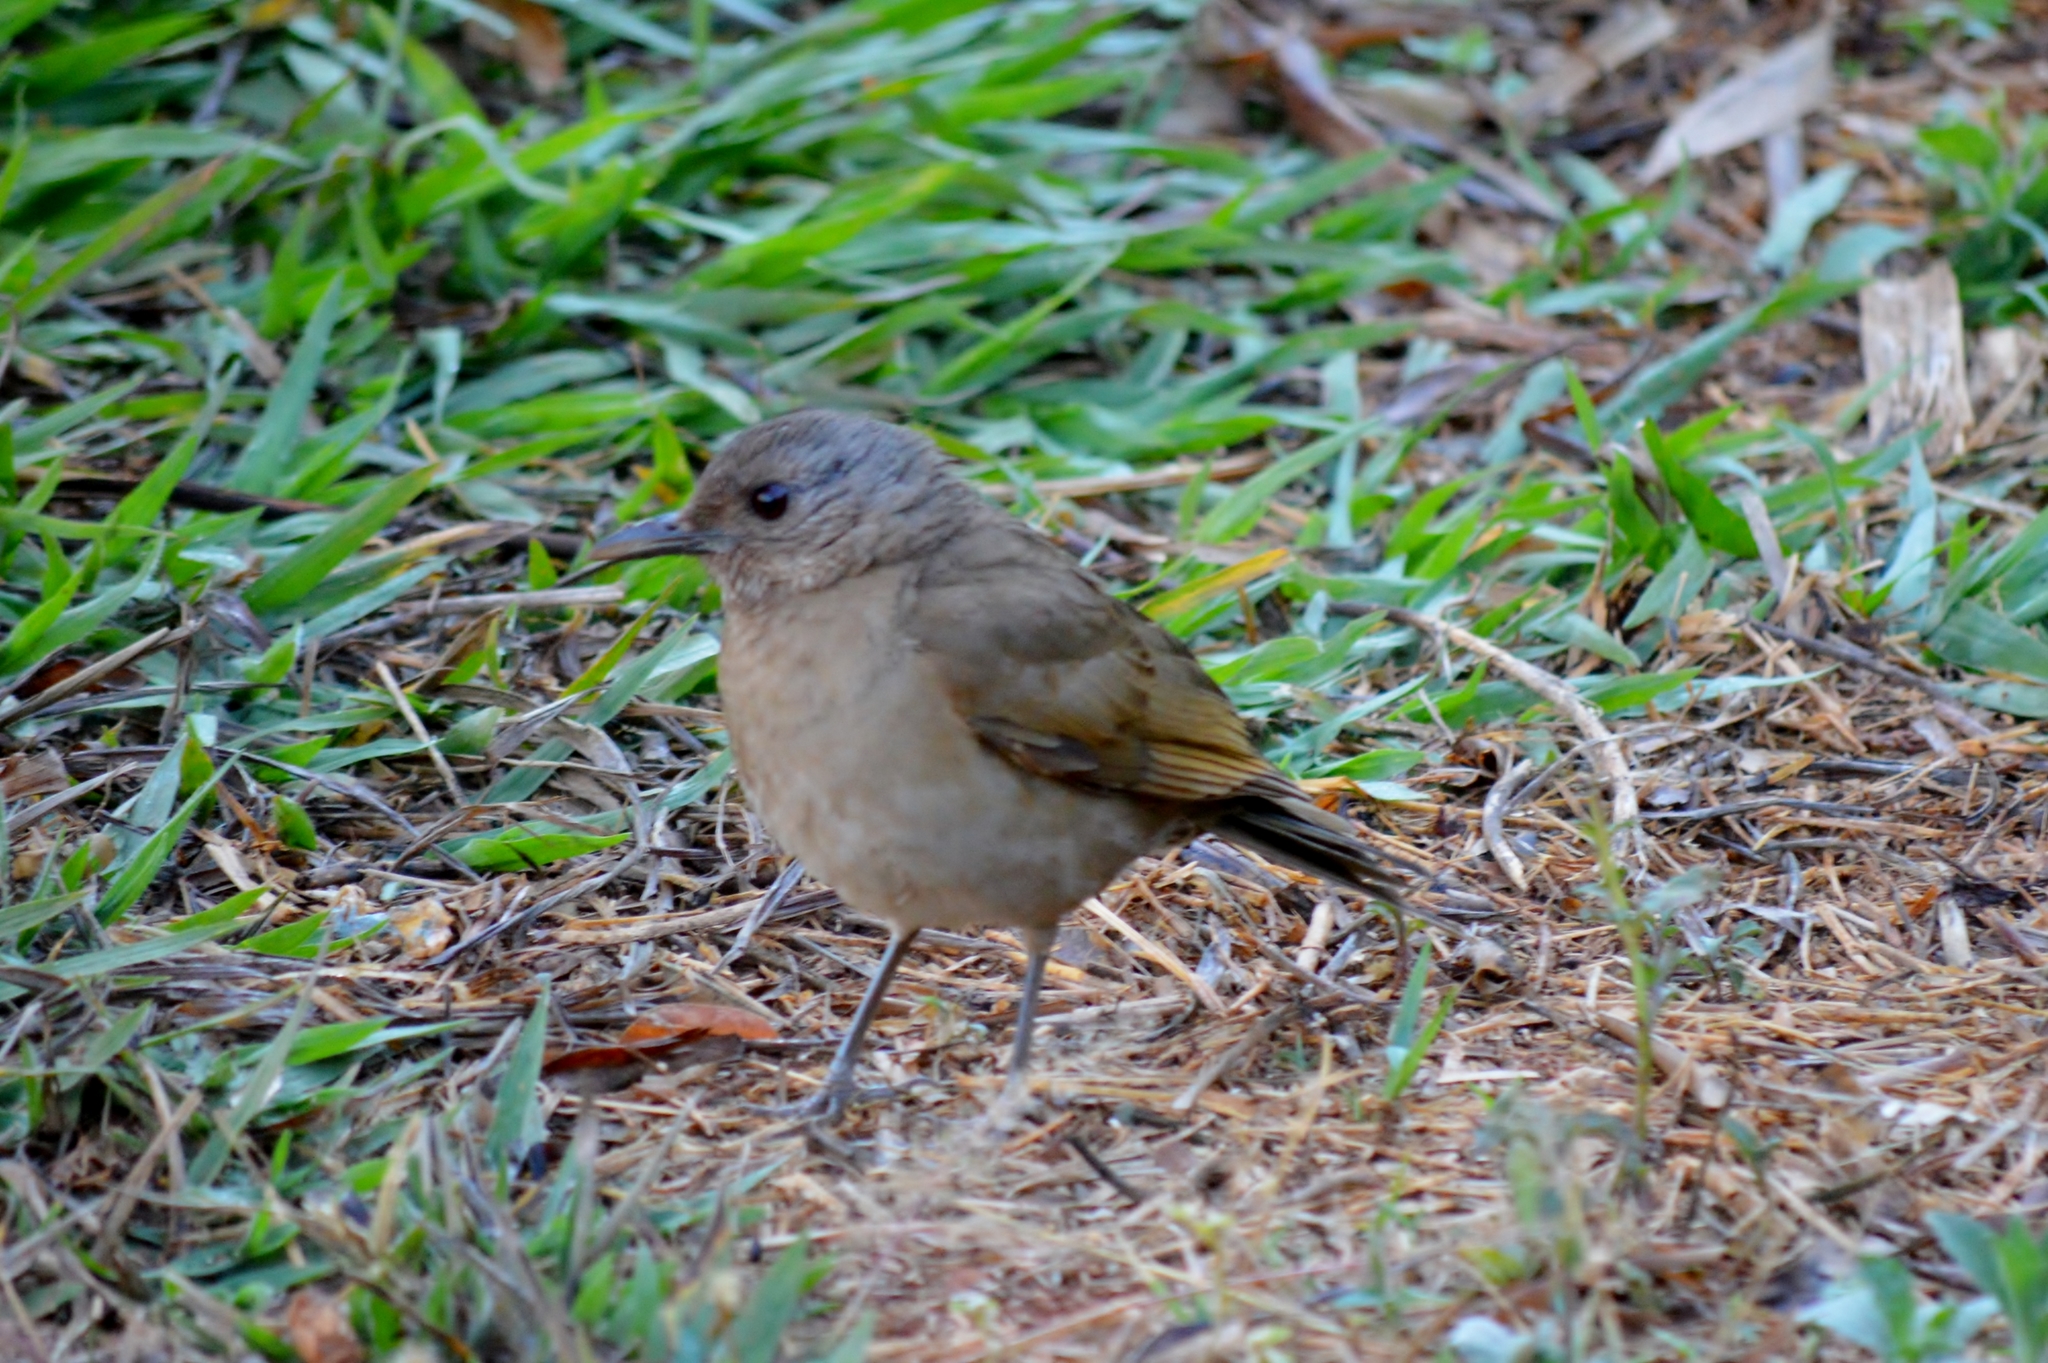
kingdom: Animalia
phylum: Chordata
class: Aves
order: Passeriformes
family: Turdidae
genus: Turdus
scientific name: Turdus leucomelas
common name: Pale-breasted thrush
